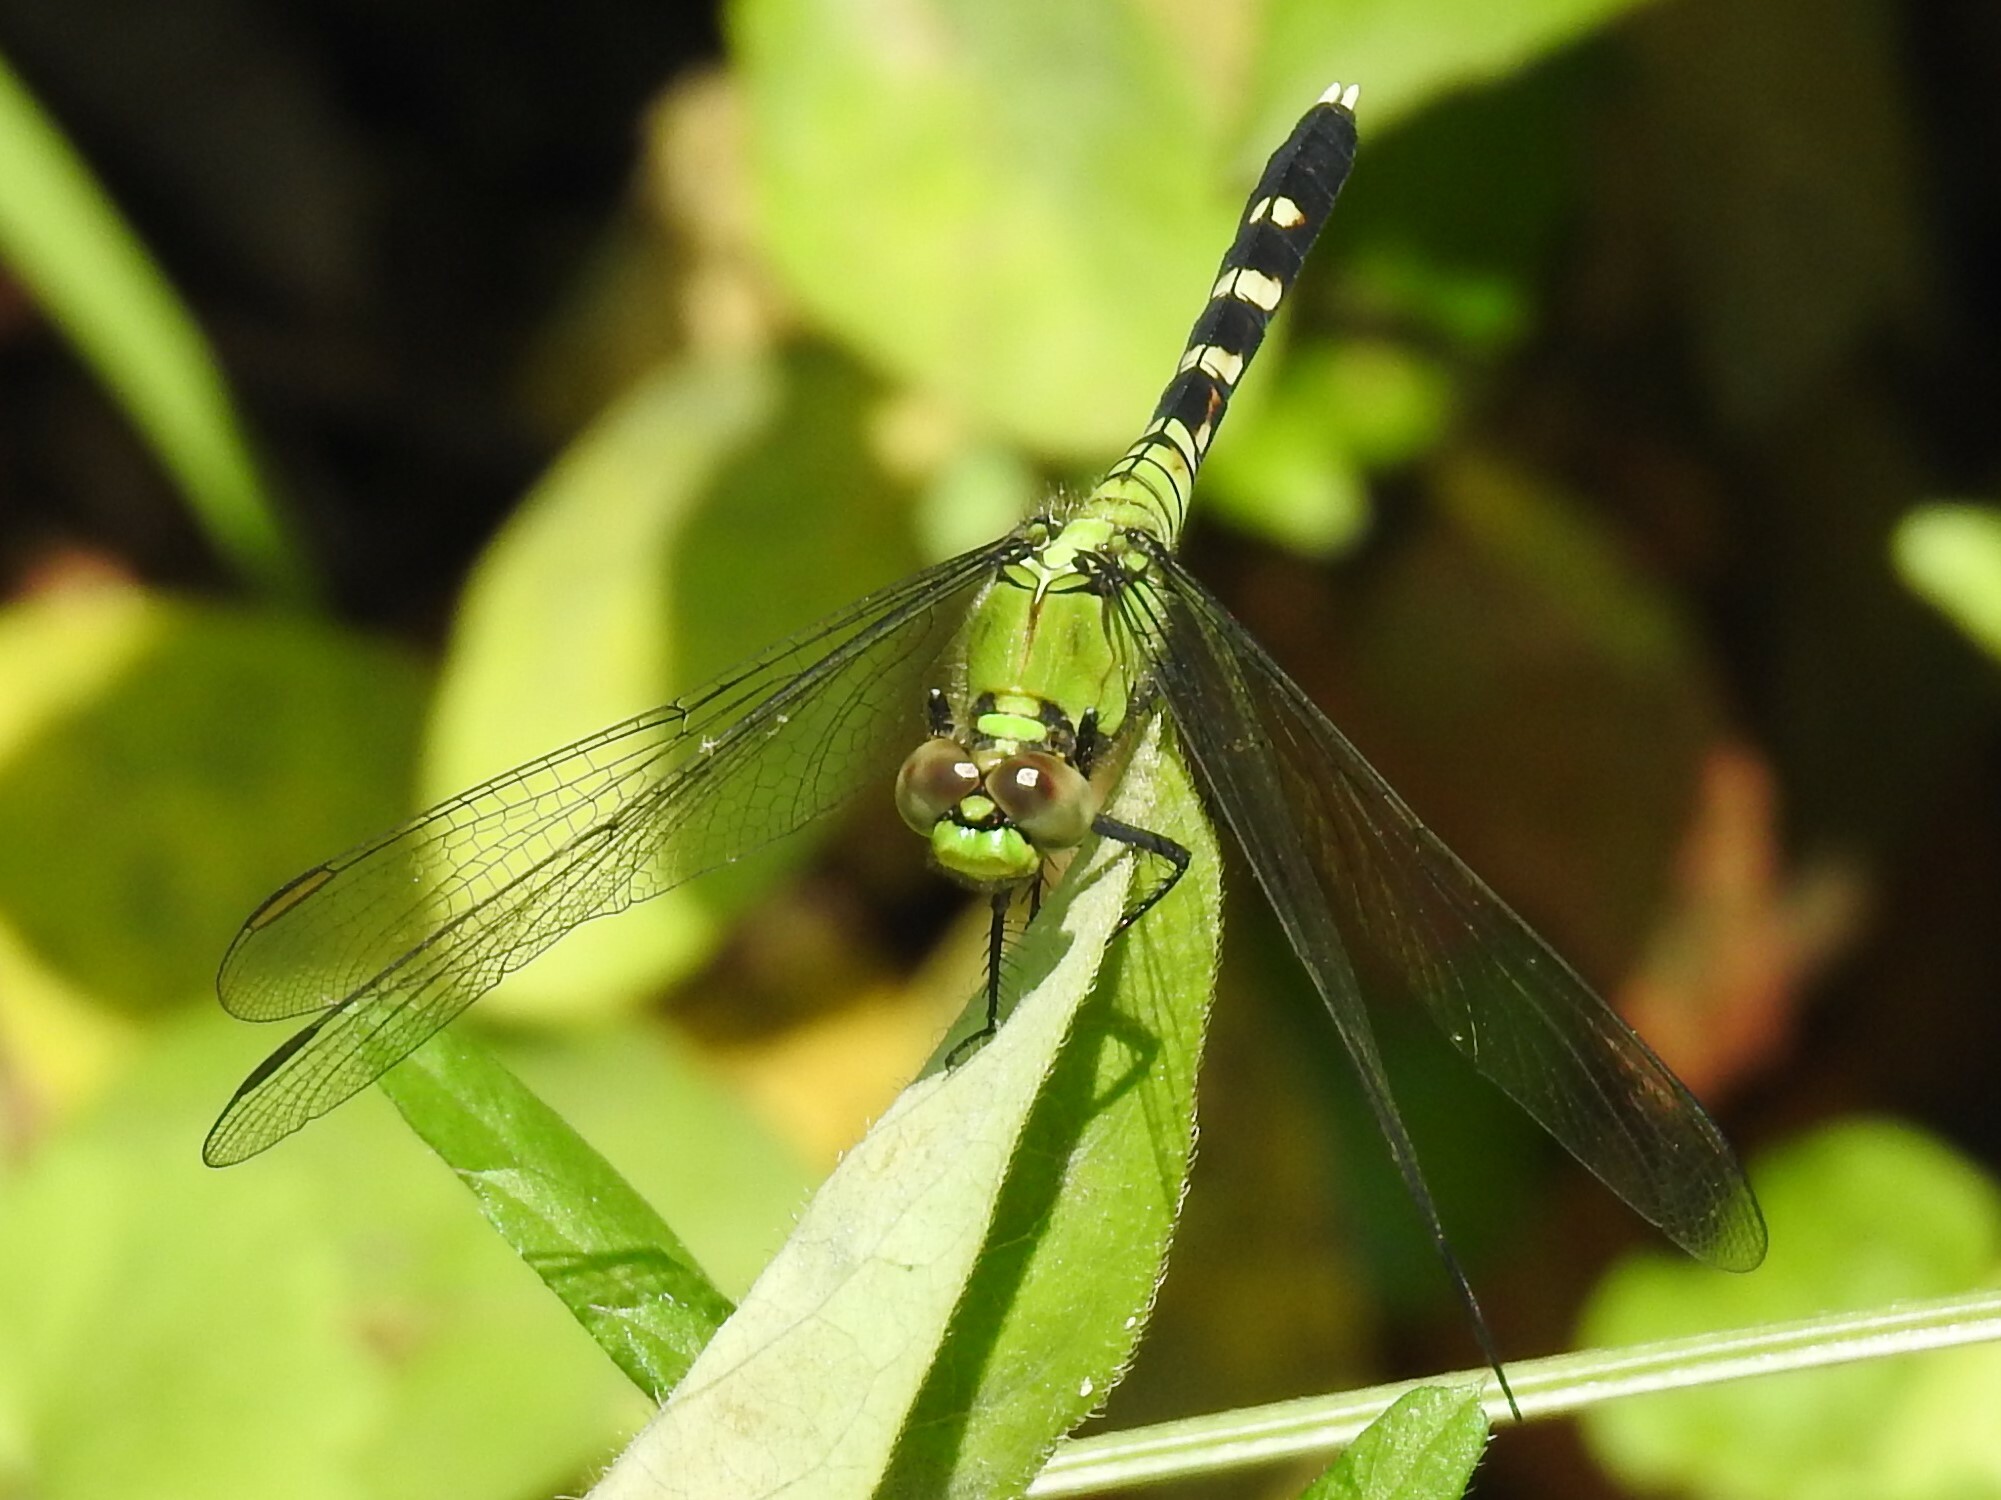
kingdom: Animalia
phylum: Arthropoda
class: Insecta
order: Odonata
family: Libellulidae
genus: Erythemis
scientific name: Erythemis simplicicollis
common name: Eastern pondhawk
